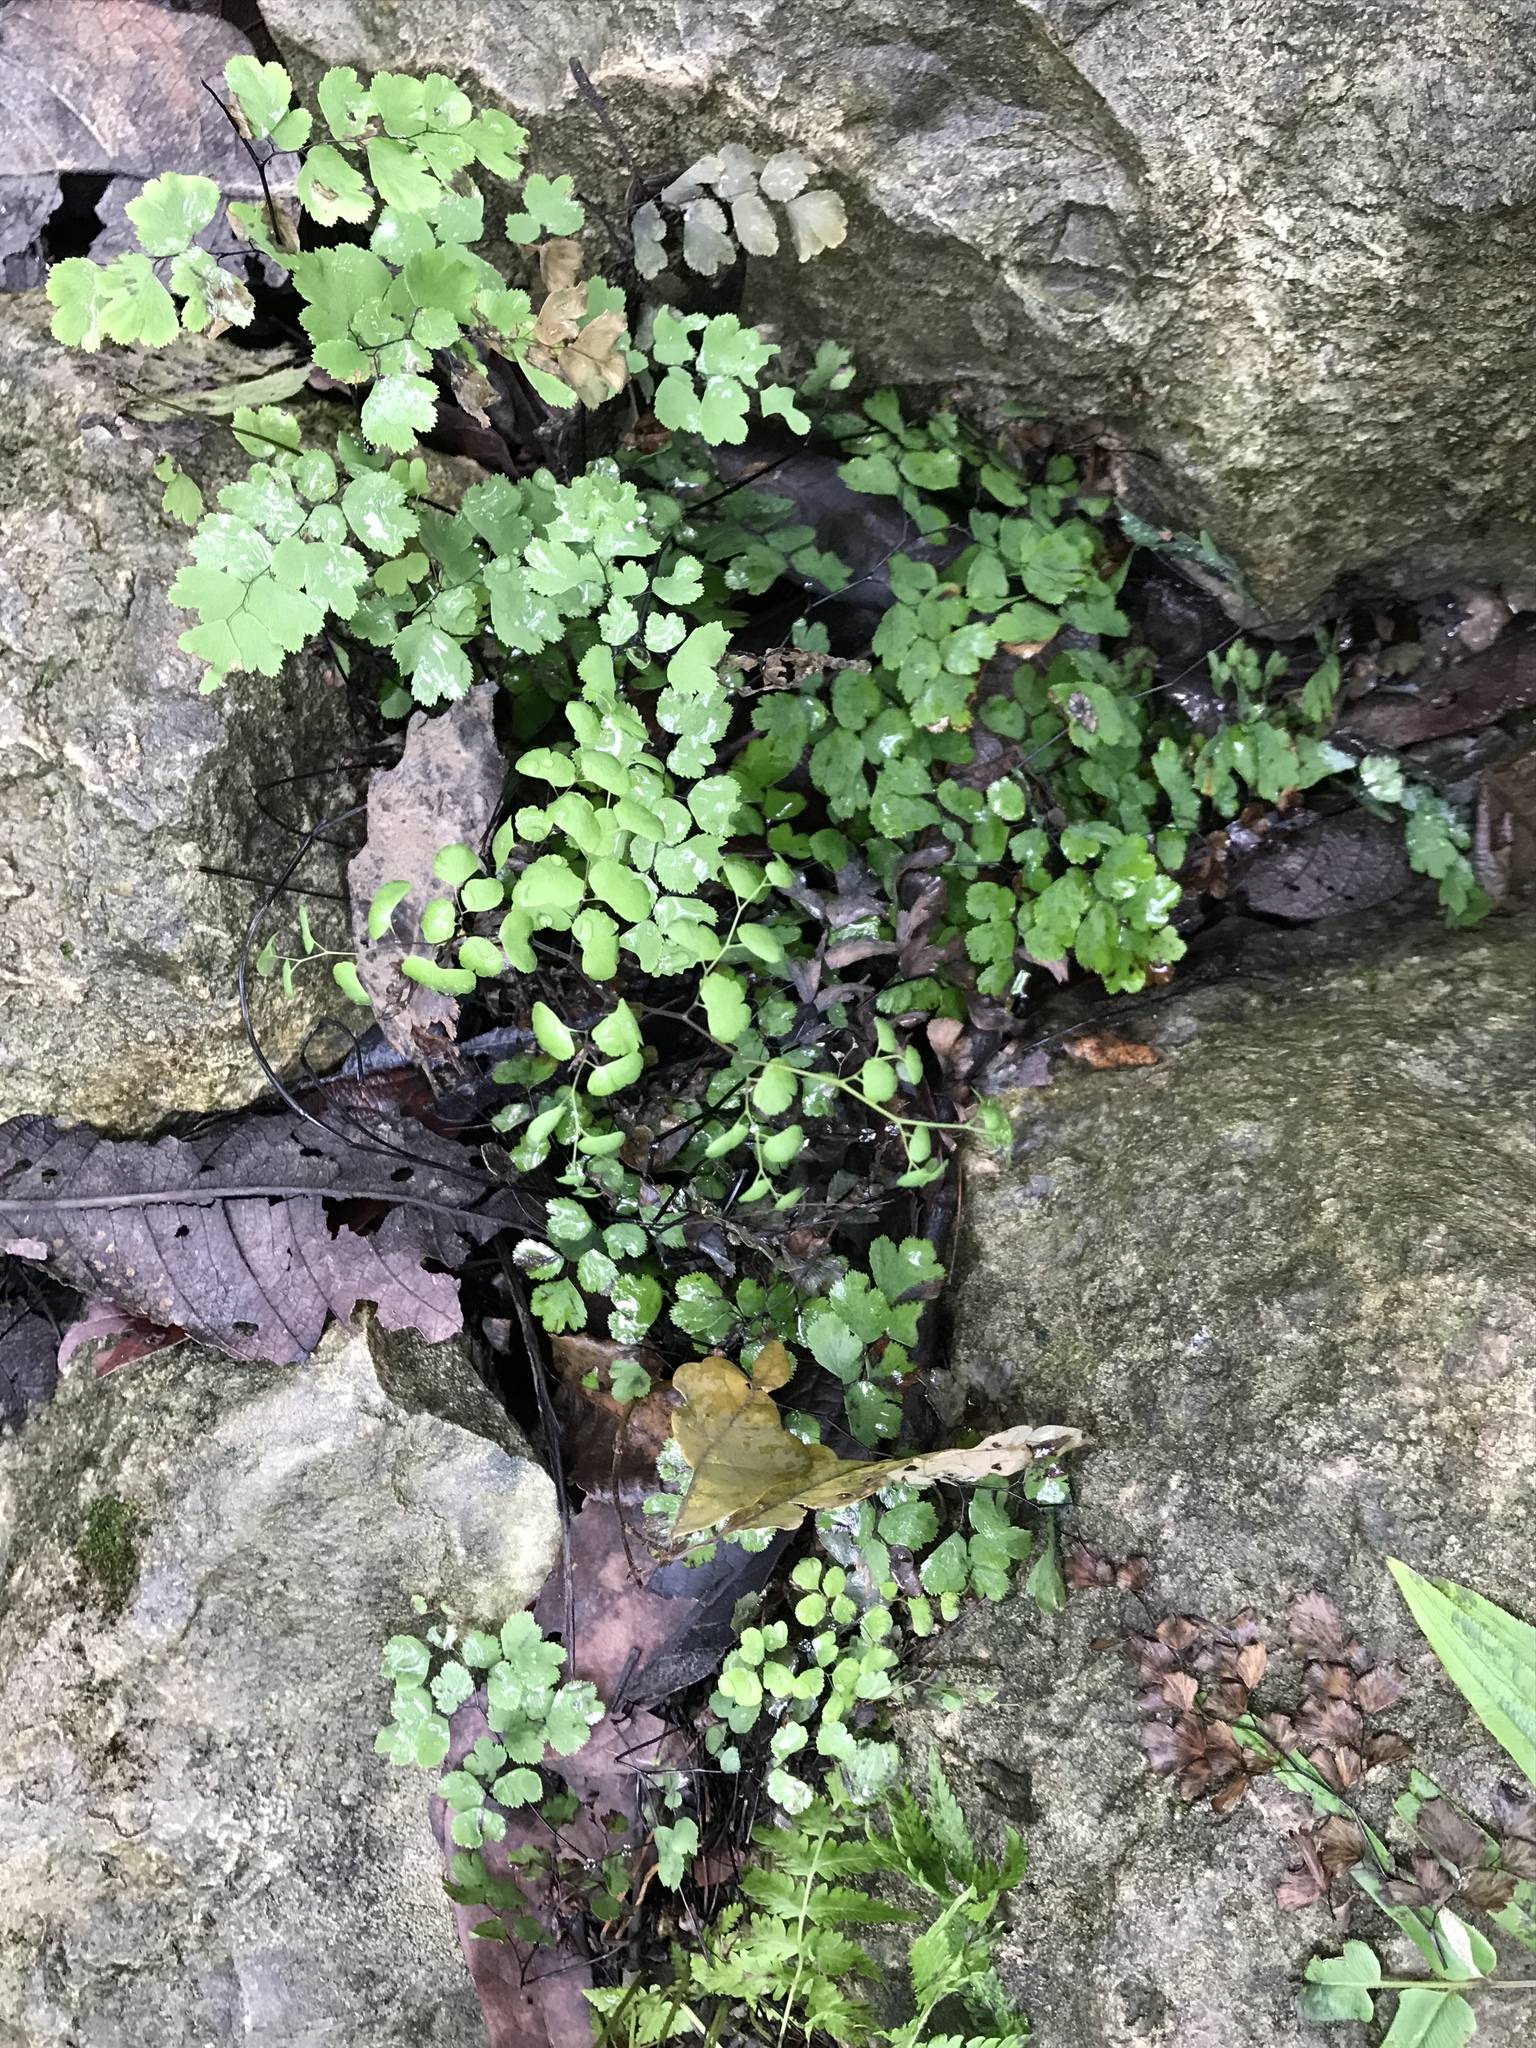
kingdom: Plantae
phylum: Tracheophyta
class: Polypodiopsida
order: Polypodiales
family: Pteridaceae
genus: Adiantum
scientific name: Adiantum capillus-veneris
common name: Maidenhair fern
